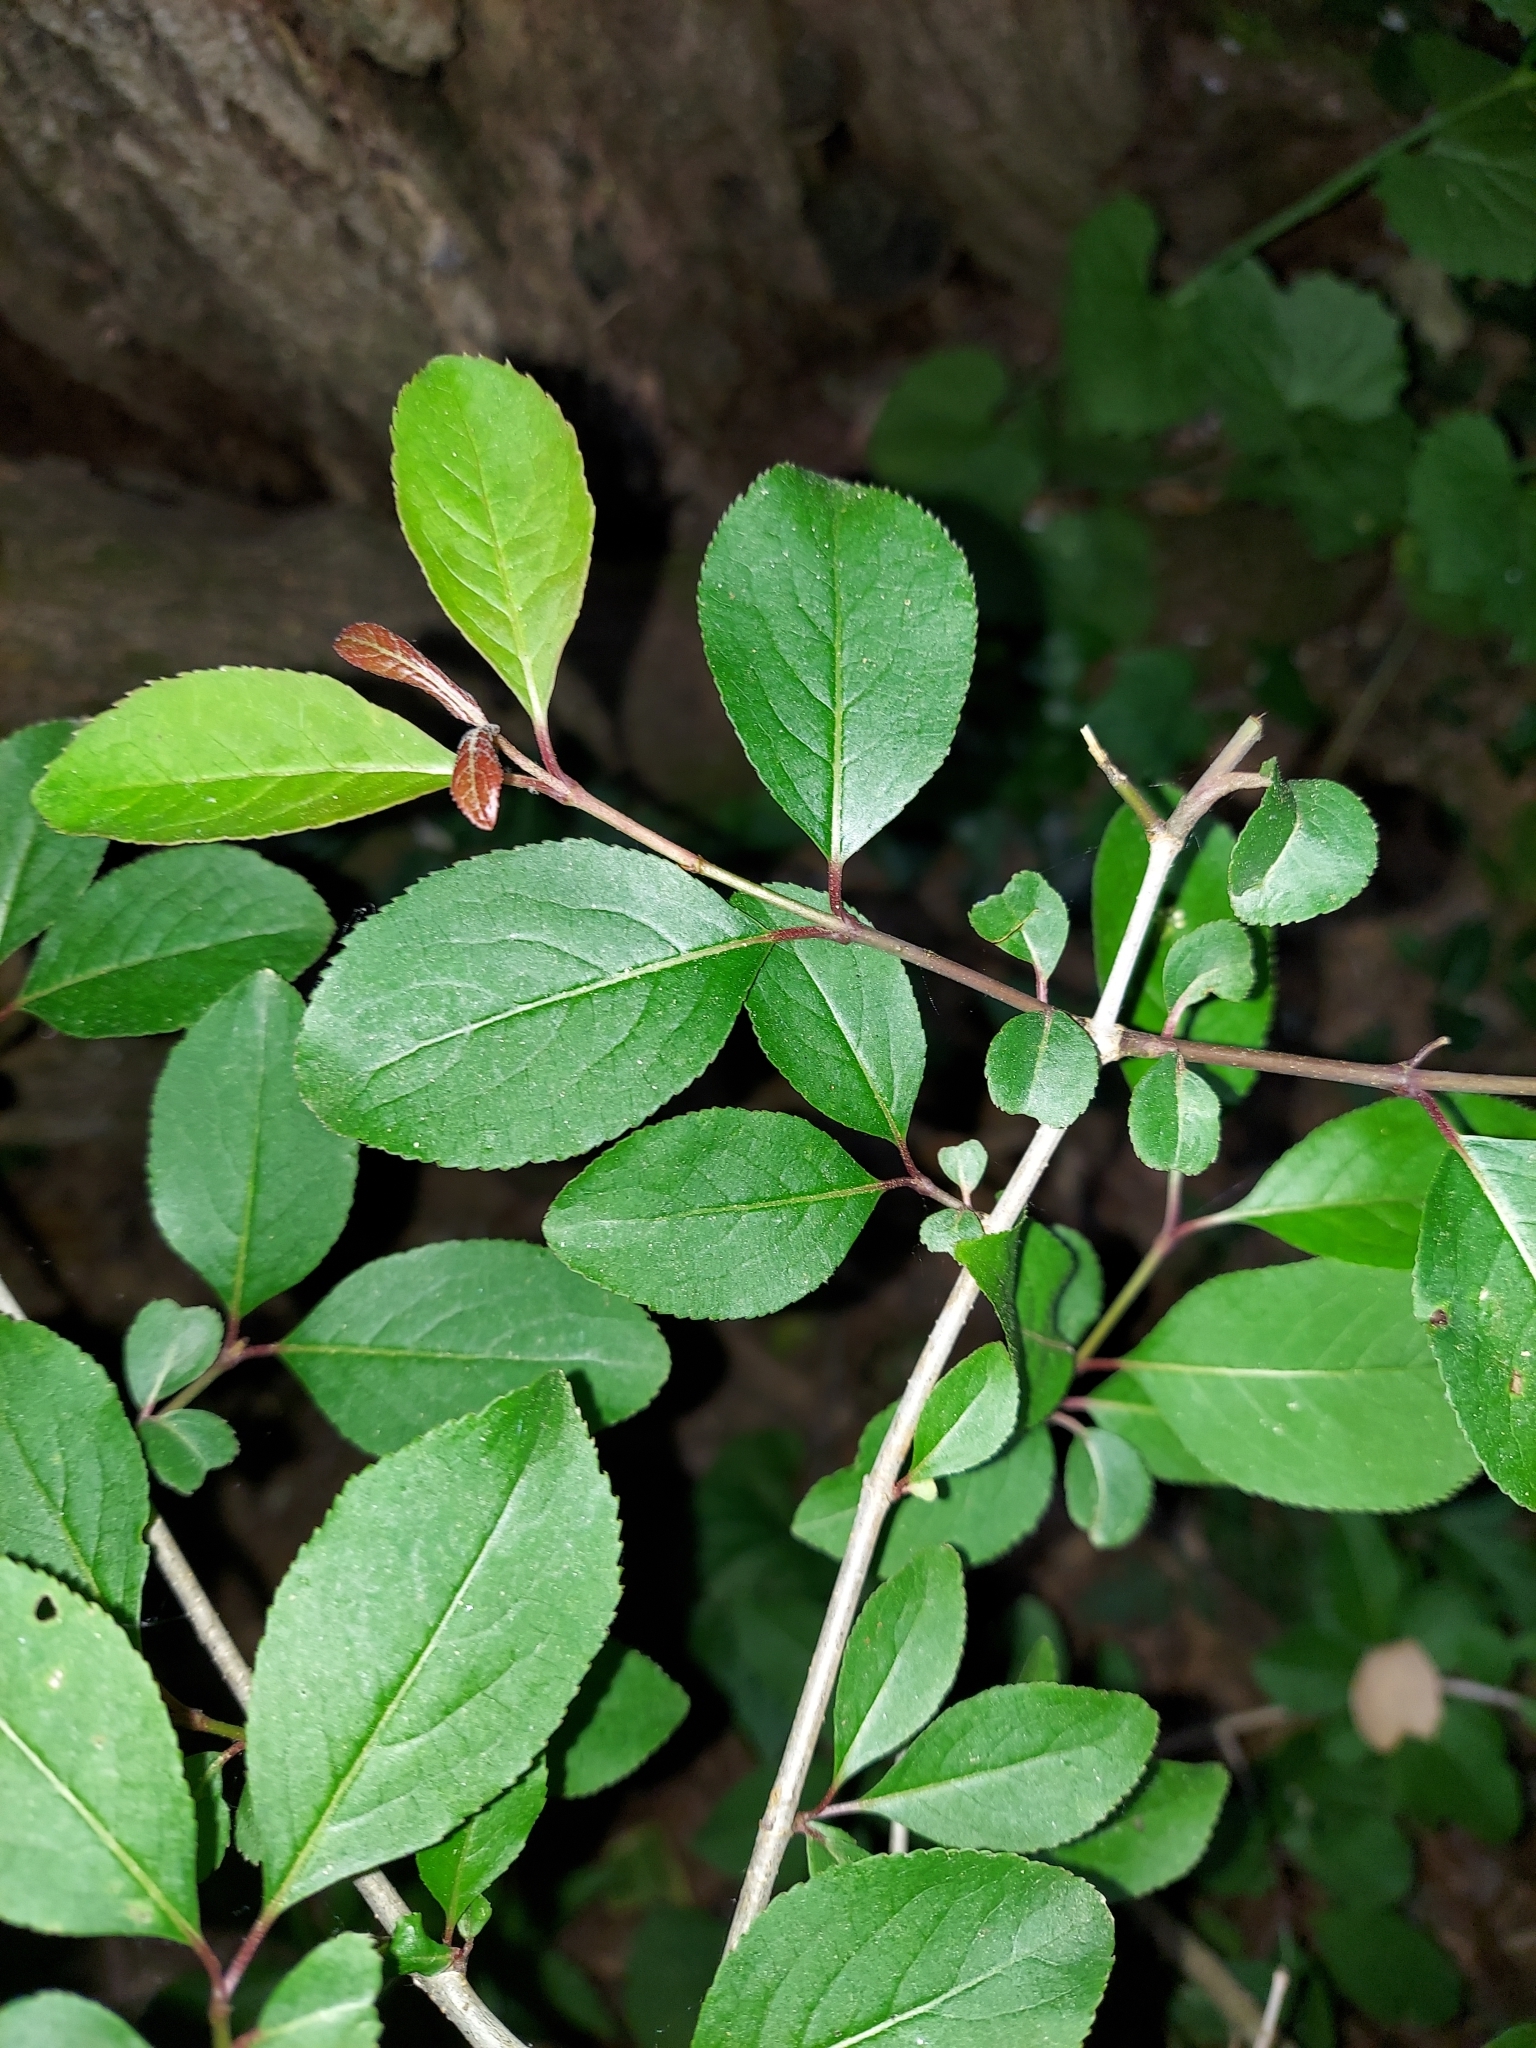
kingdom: Plantae
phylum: Tracheophyta
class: Magnoliopsida
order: Dipsacales
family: Viburnaceae
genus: Viburnum
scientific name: Viburnum prunifolium
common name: Black haw
